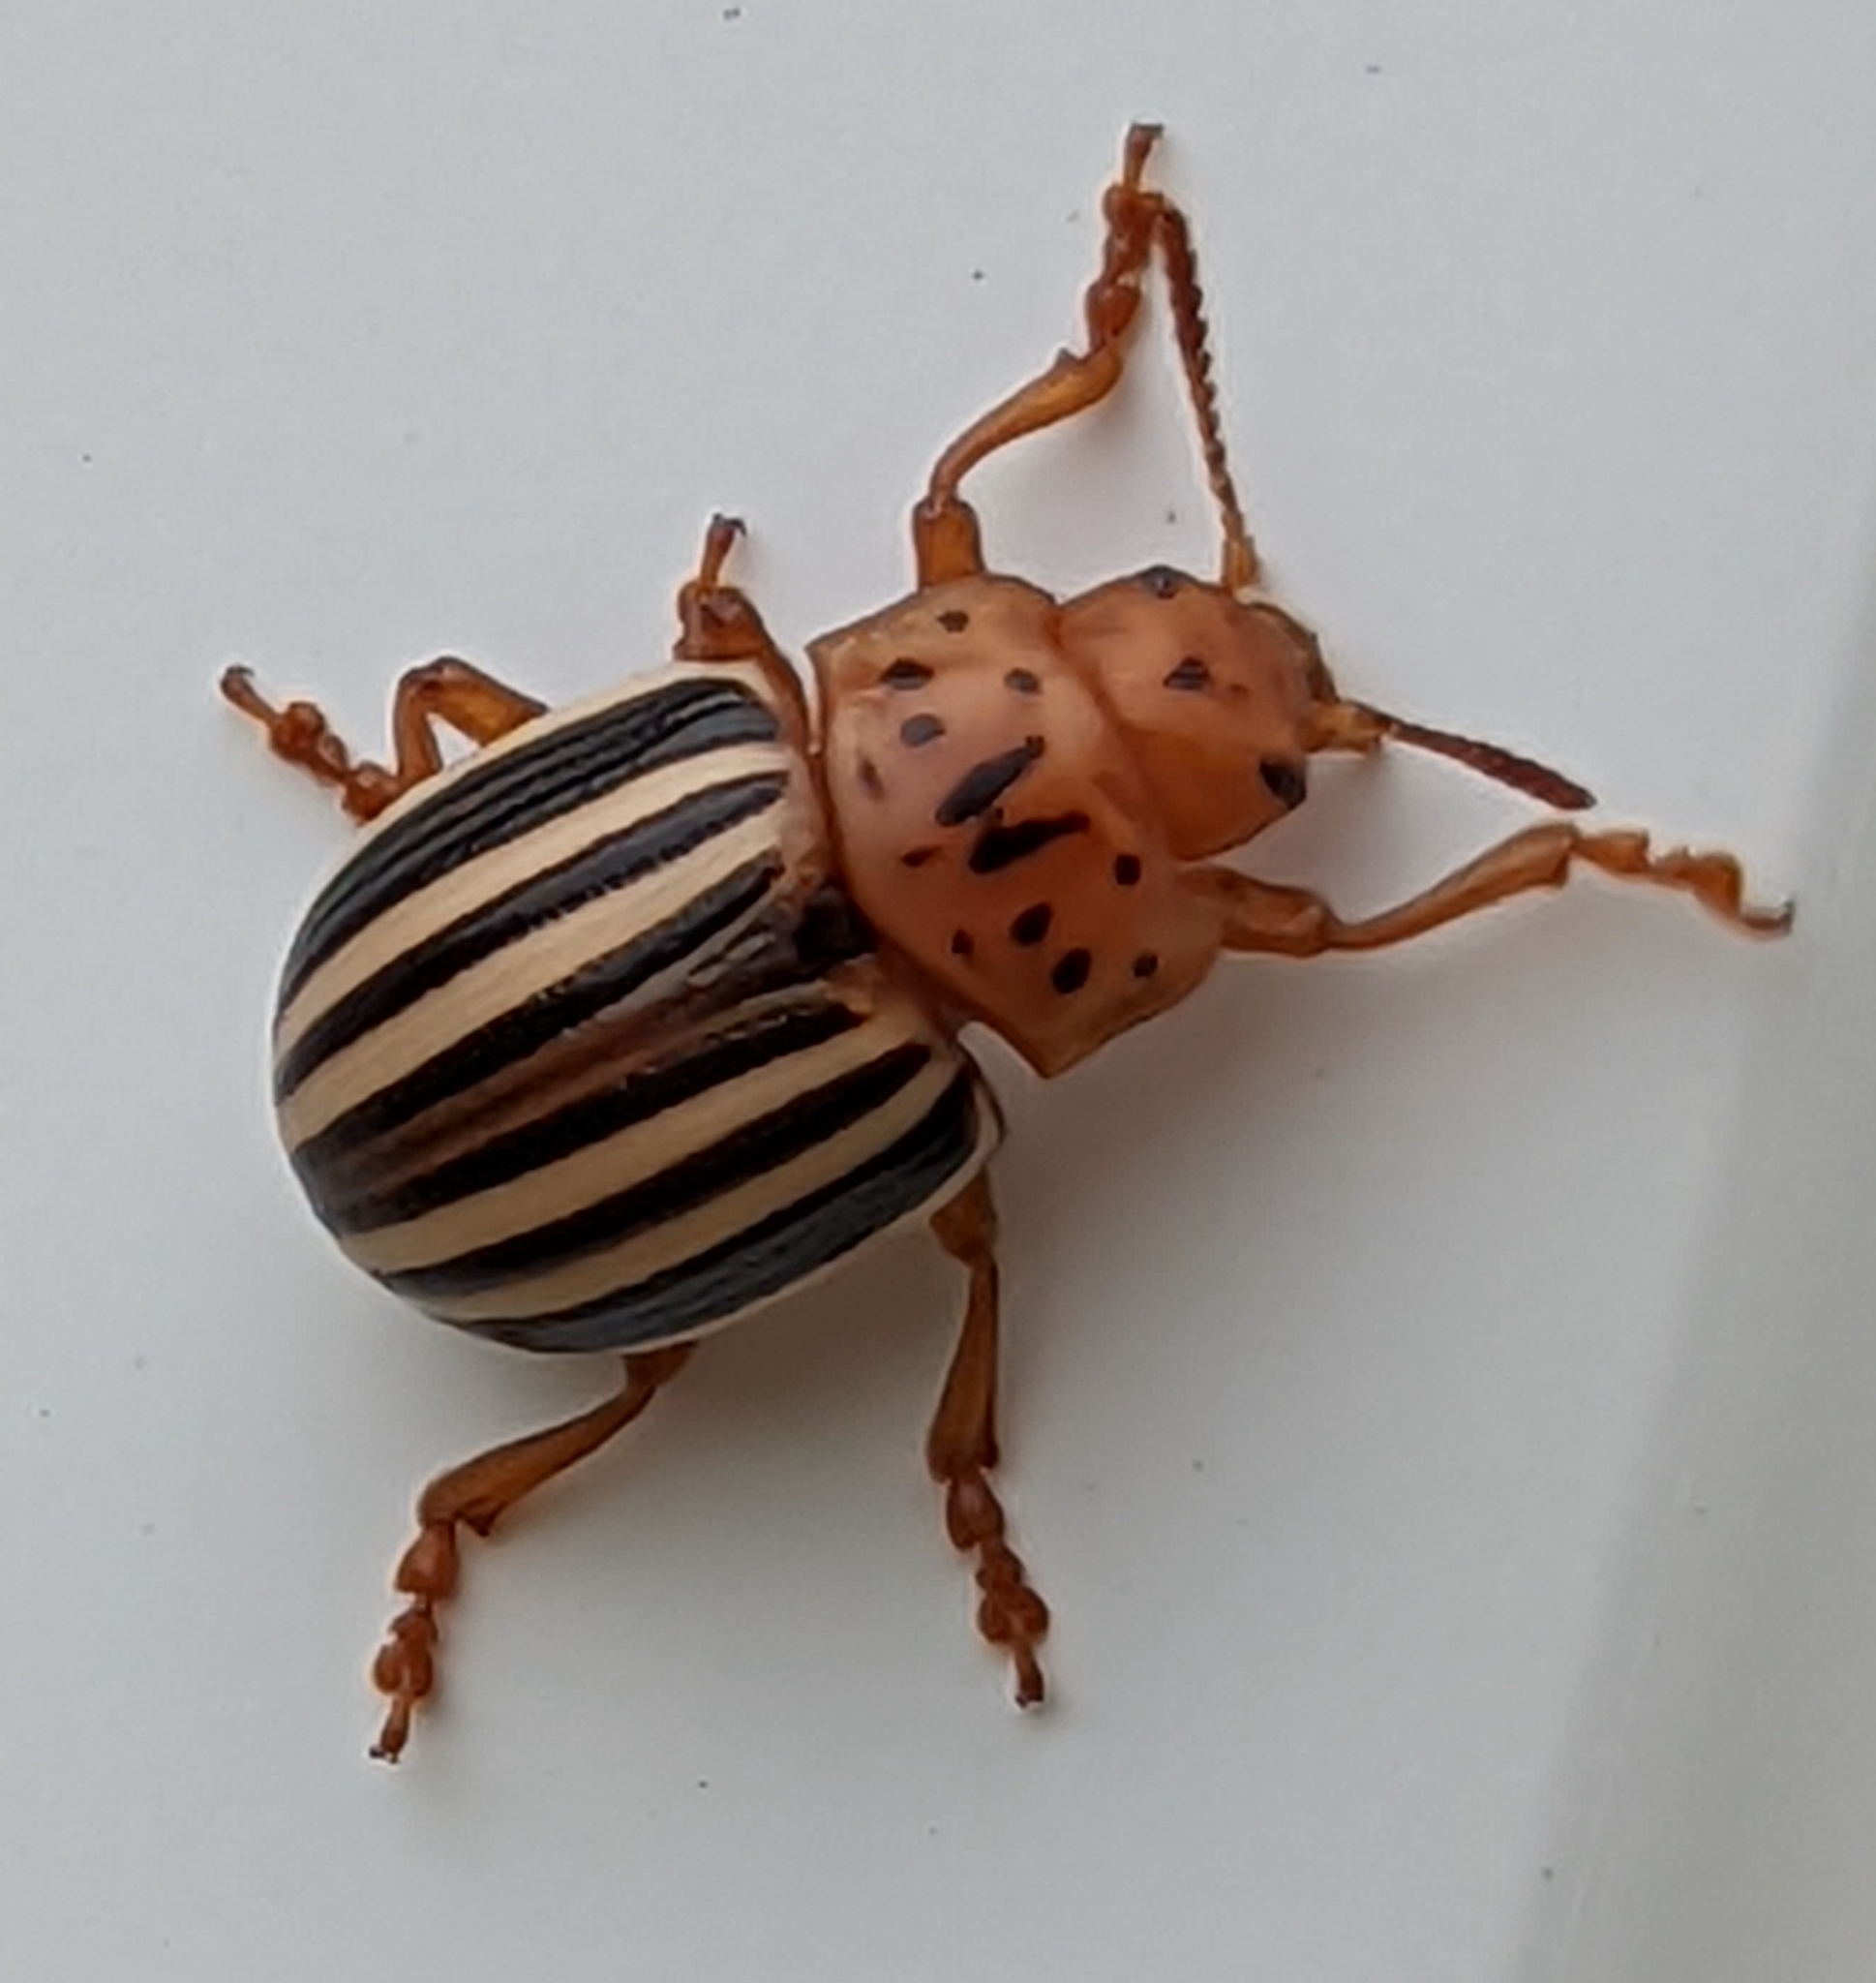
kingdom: Animalia
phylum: Arthropoda
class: Insecta
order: Coleoptera
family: Chrysomelidae
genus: Leptinotarsa
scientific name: Leptinotarsa juncta
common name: False potato beetle
